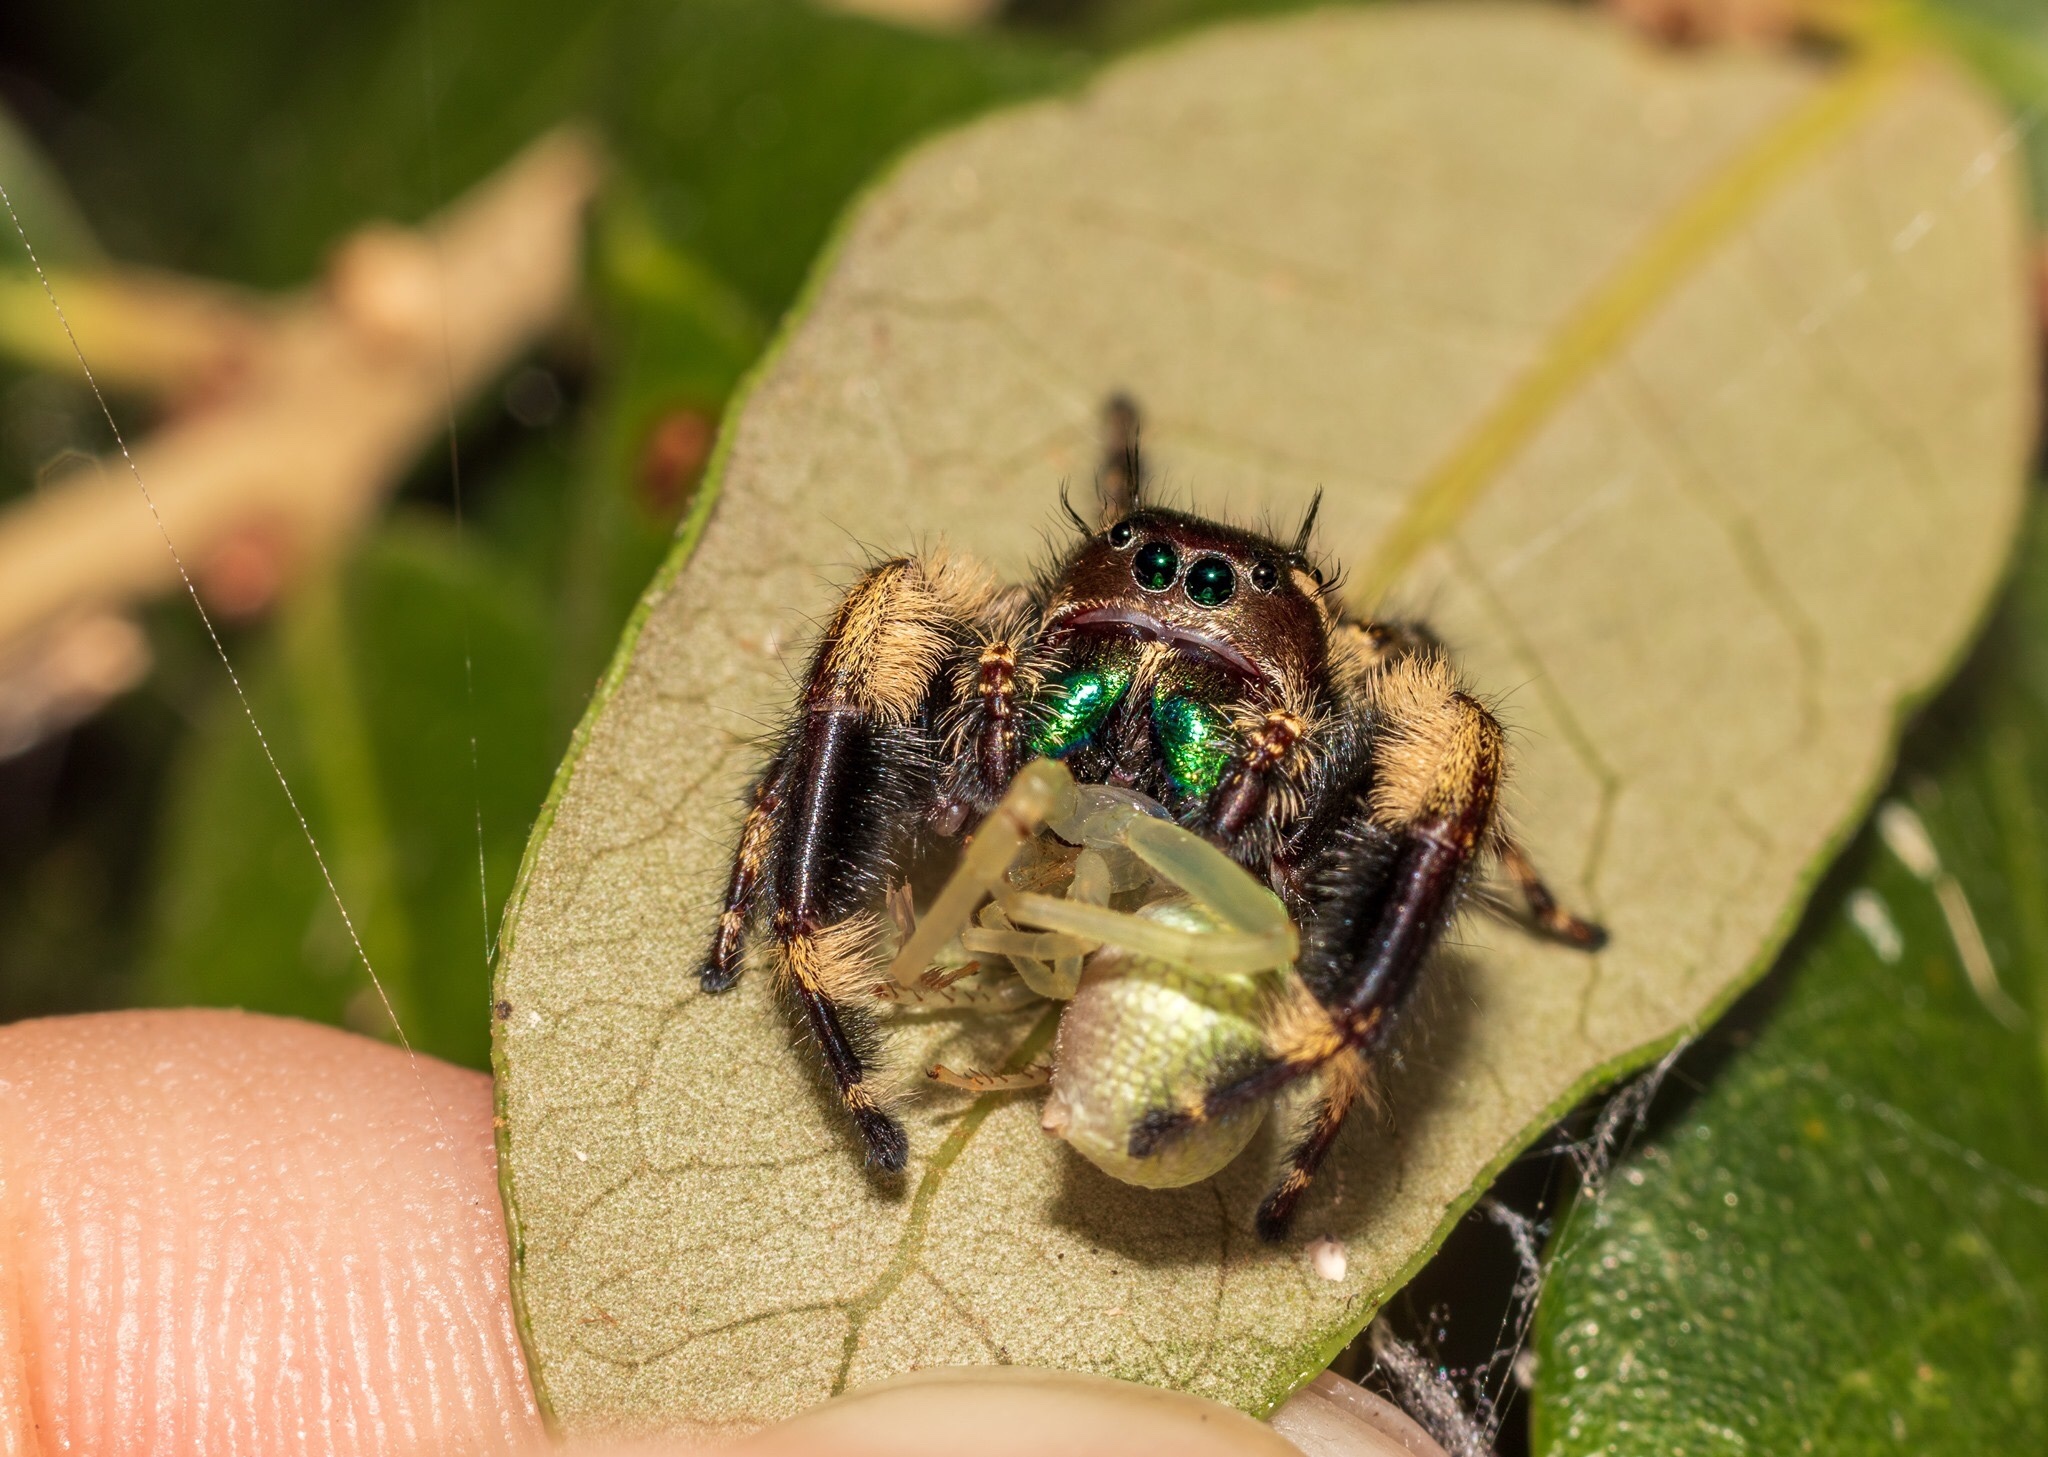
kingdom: Animalia
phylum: Arthropoda
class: Arachnida
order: Araneae
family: Salticidae
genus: Phidippus
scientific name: Phidippus otiosus
